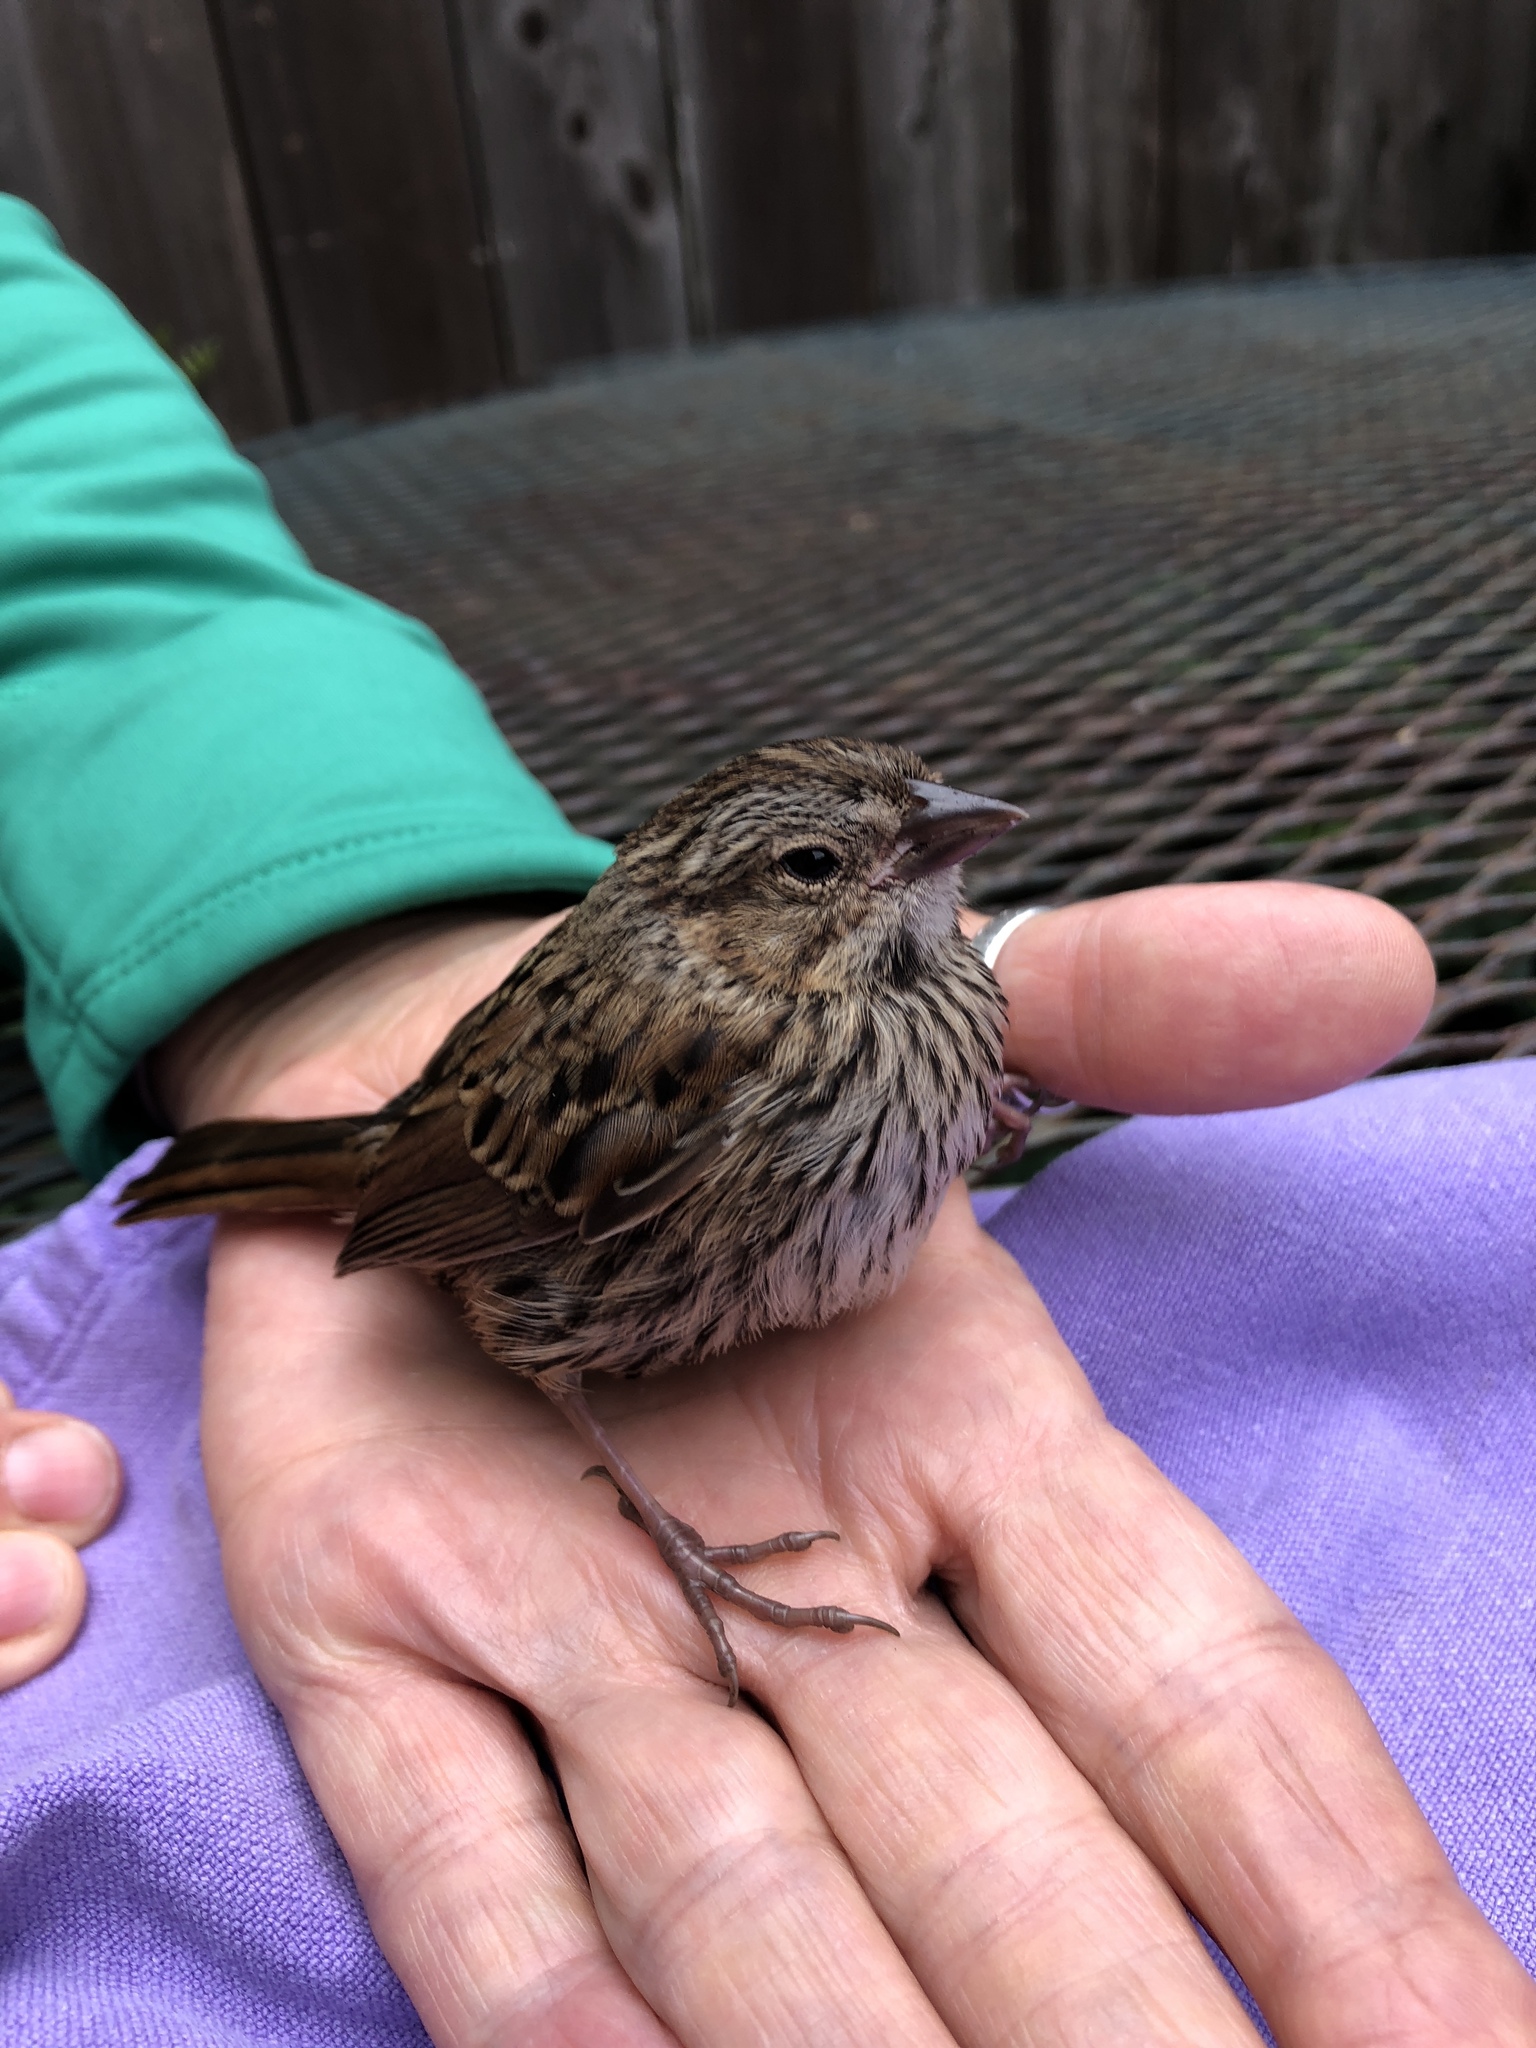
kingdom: Animalia
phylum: Chordata
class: Aves
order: Passeriformes
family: Passerellidae
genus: Melospiza
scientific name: Melospiza melodia
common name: Song sparrow
